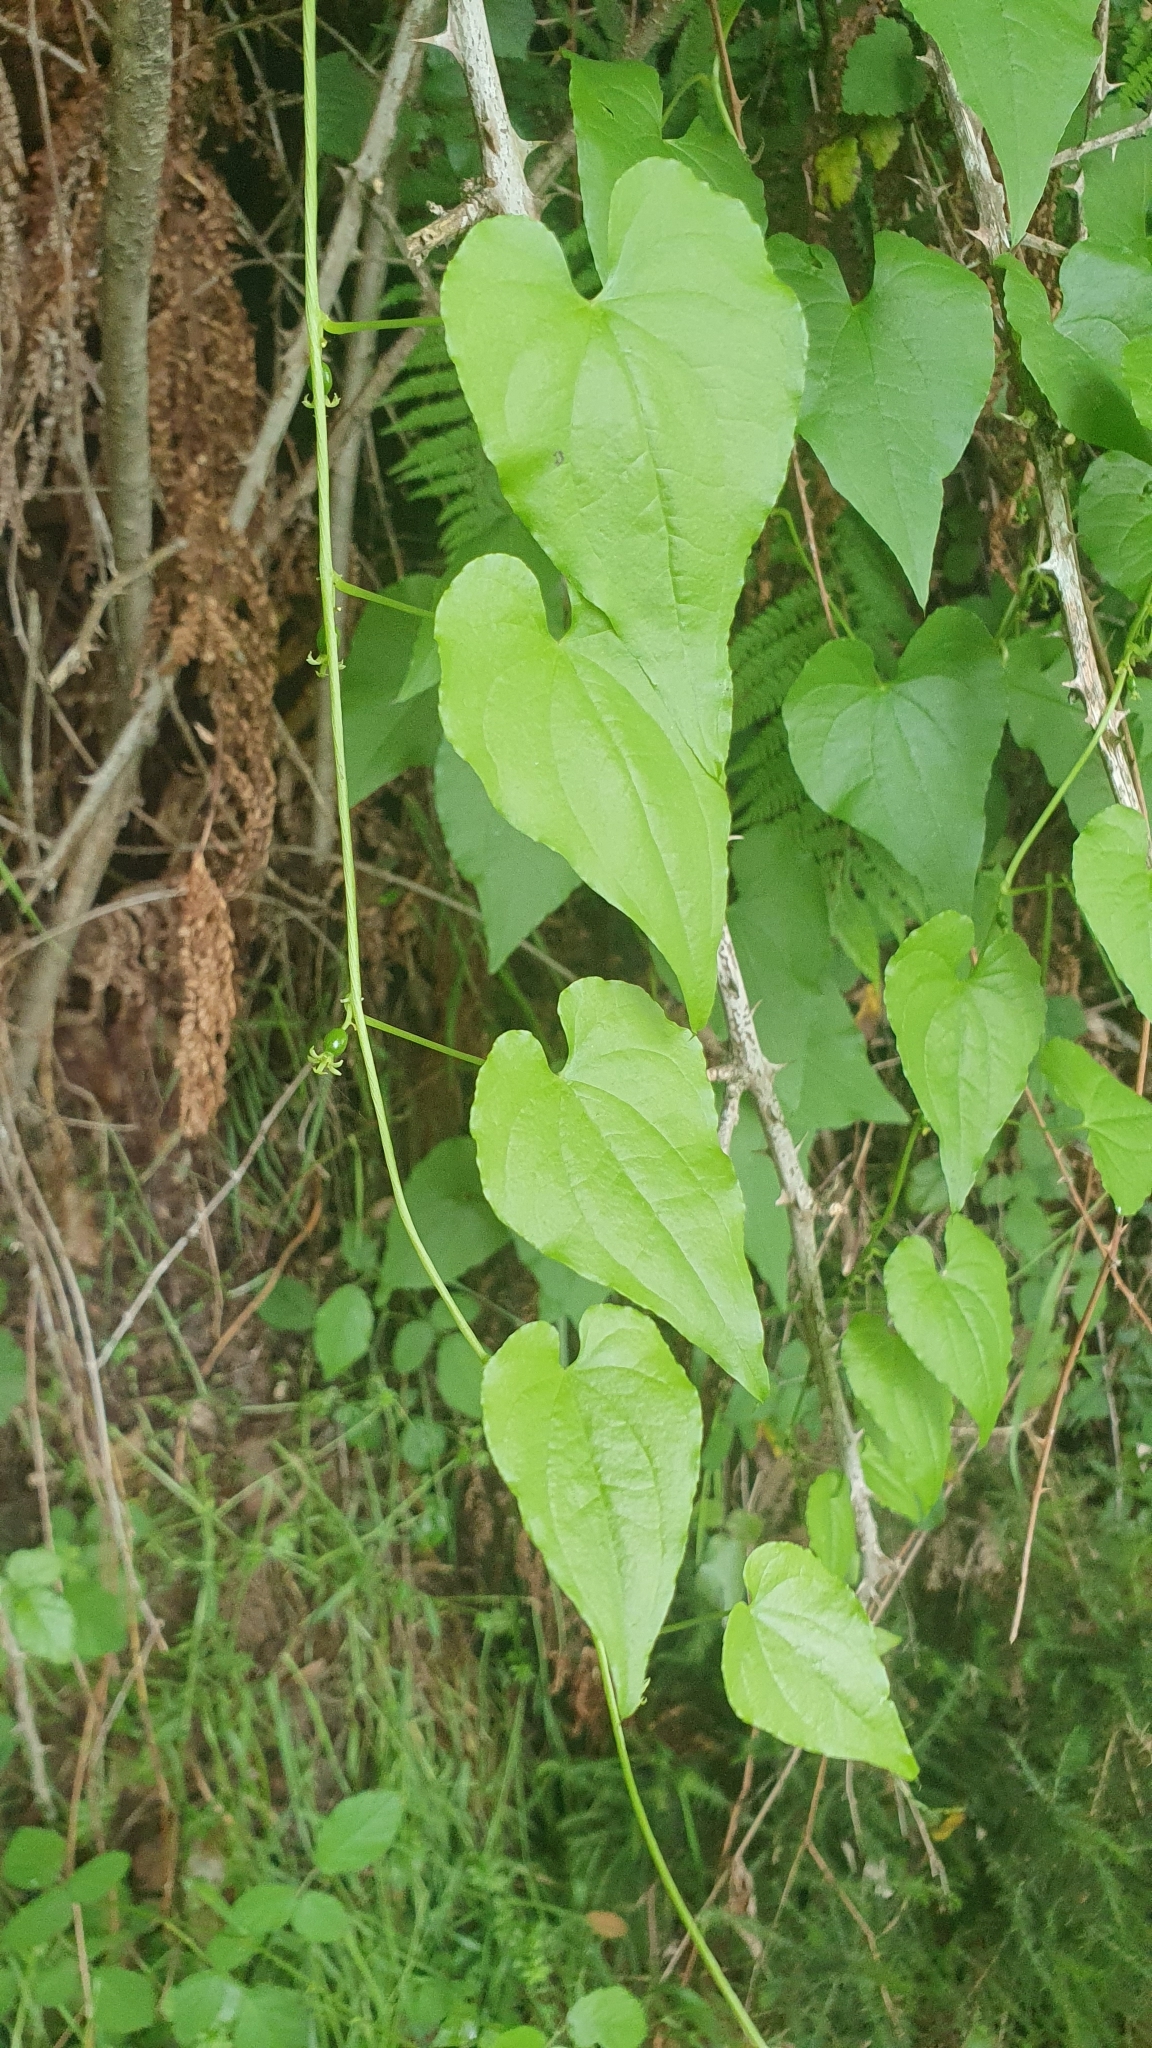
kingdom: Plantae
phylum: Tracheophyta
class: Liliopsida
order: Dioscoreales
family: Dioscoreaceae
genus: Dioscorea
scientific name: Dioscorea communis
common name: Black-bindweed
